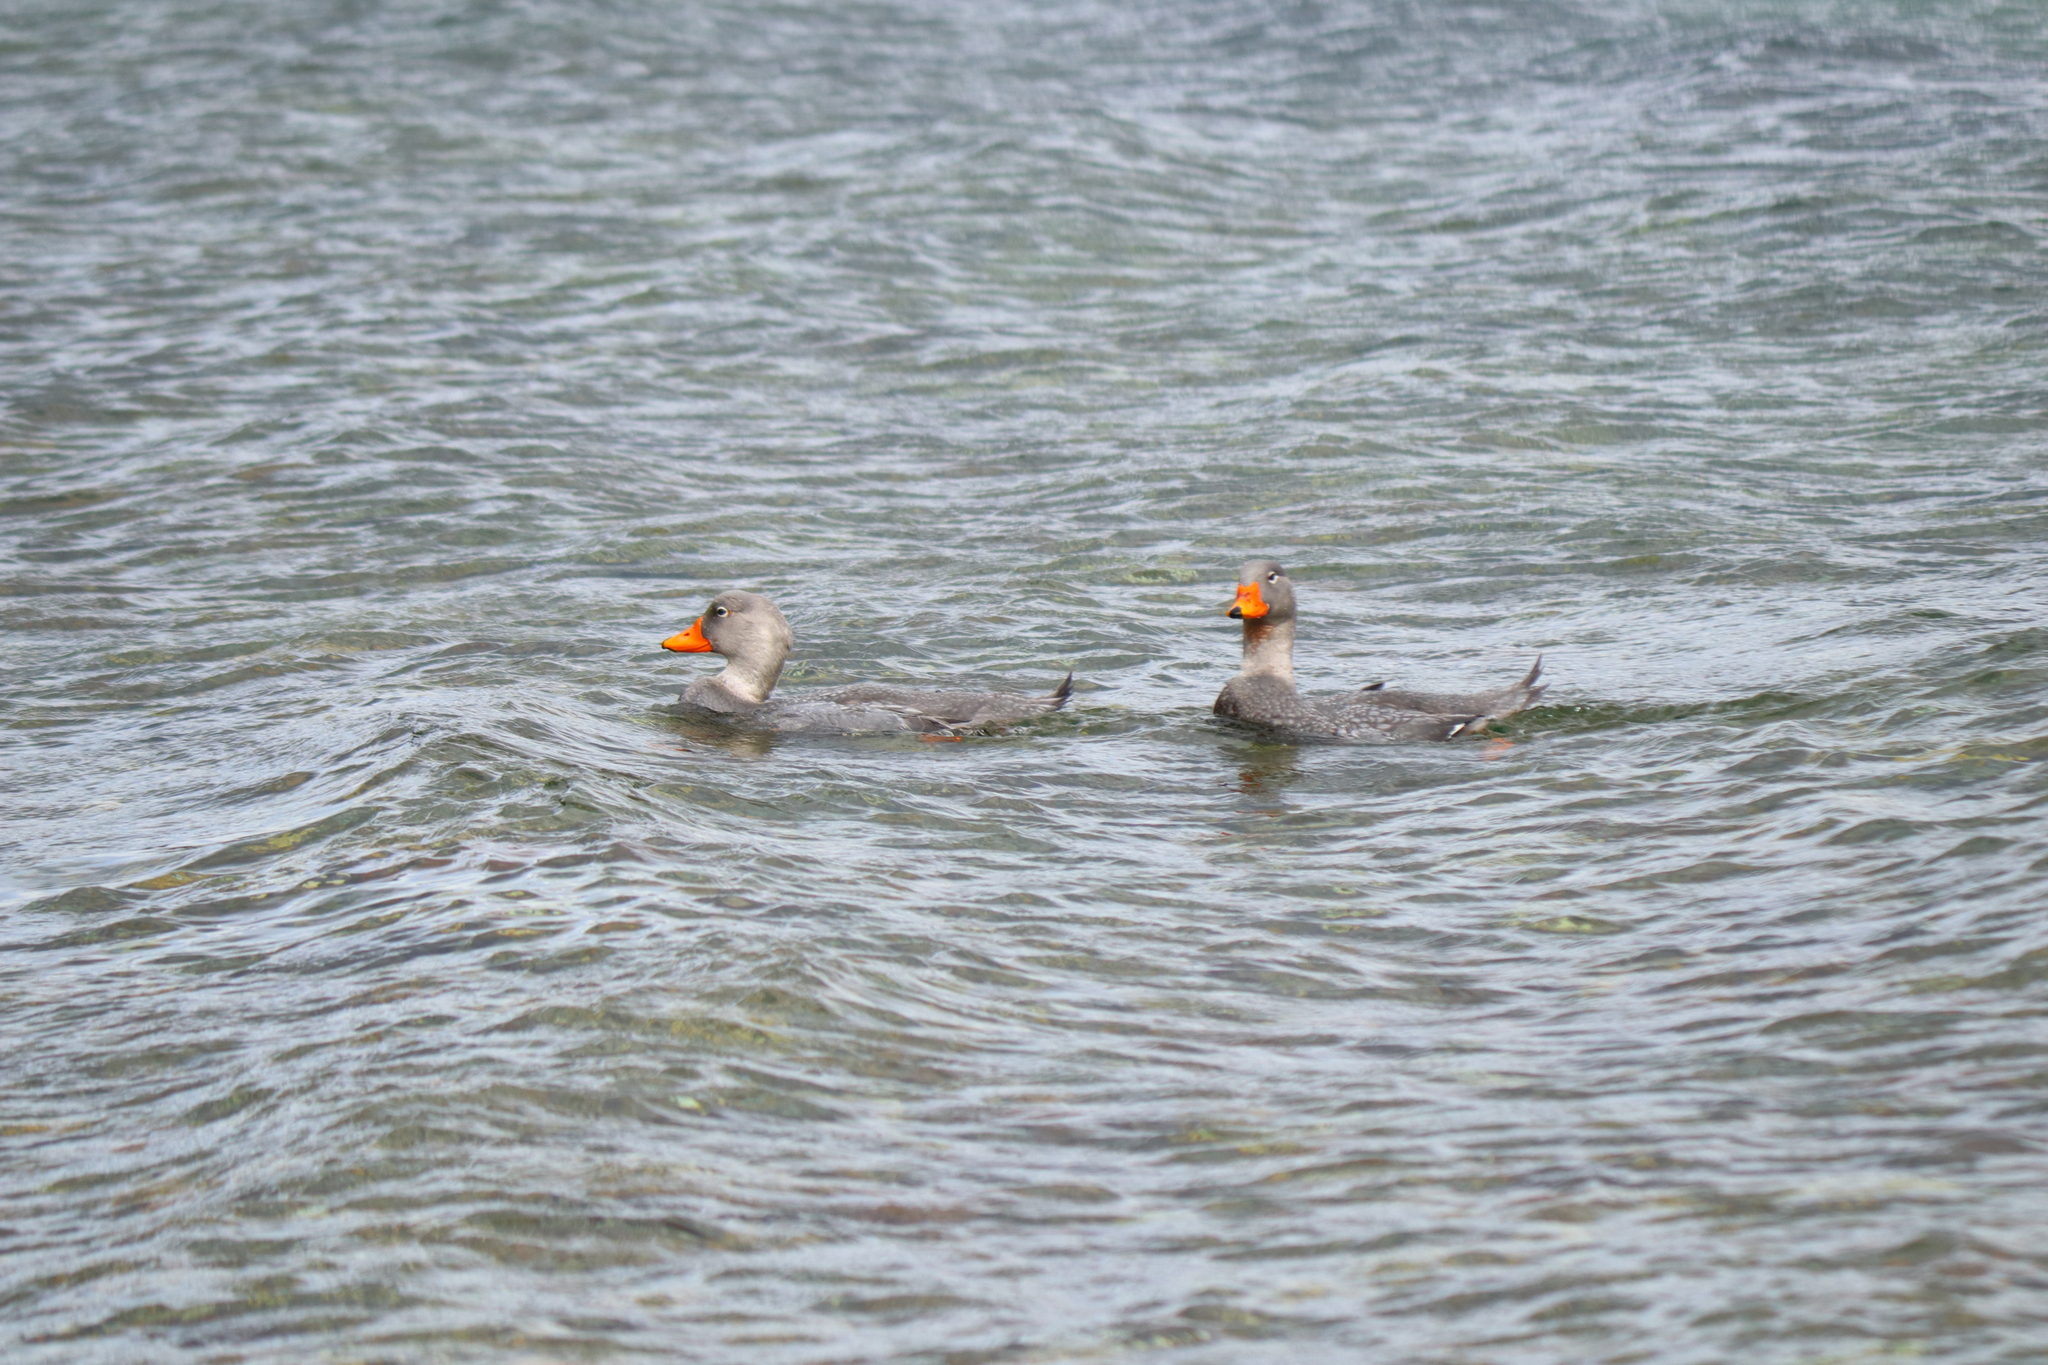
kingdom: Animalia
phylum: Chordata
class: Aves
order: Anseriformes
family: Anatidae
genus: Tachyeres
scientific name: Tachyeres pteneres
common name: Fuegian steamer duck
